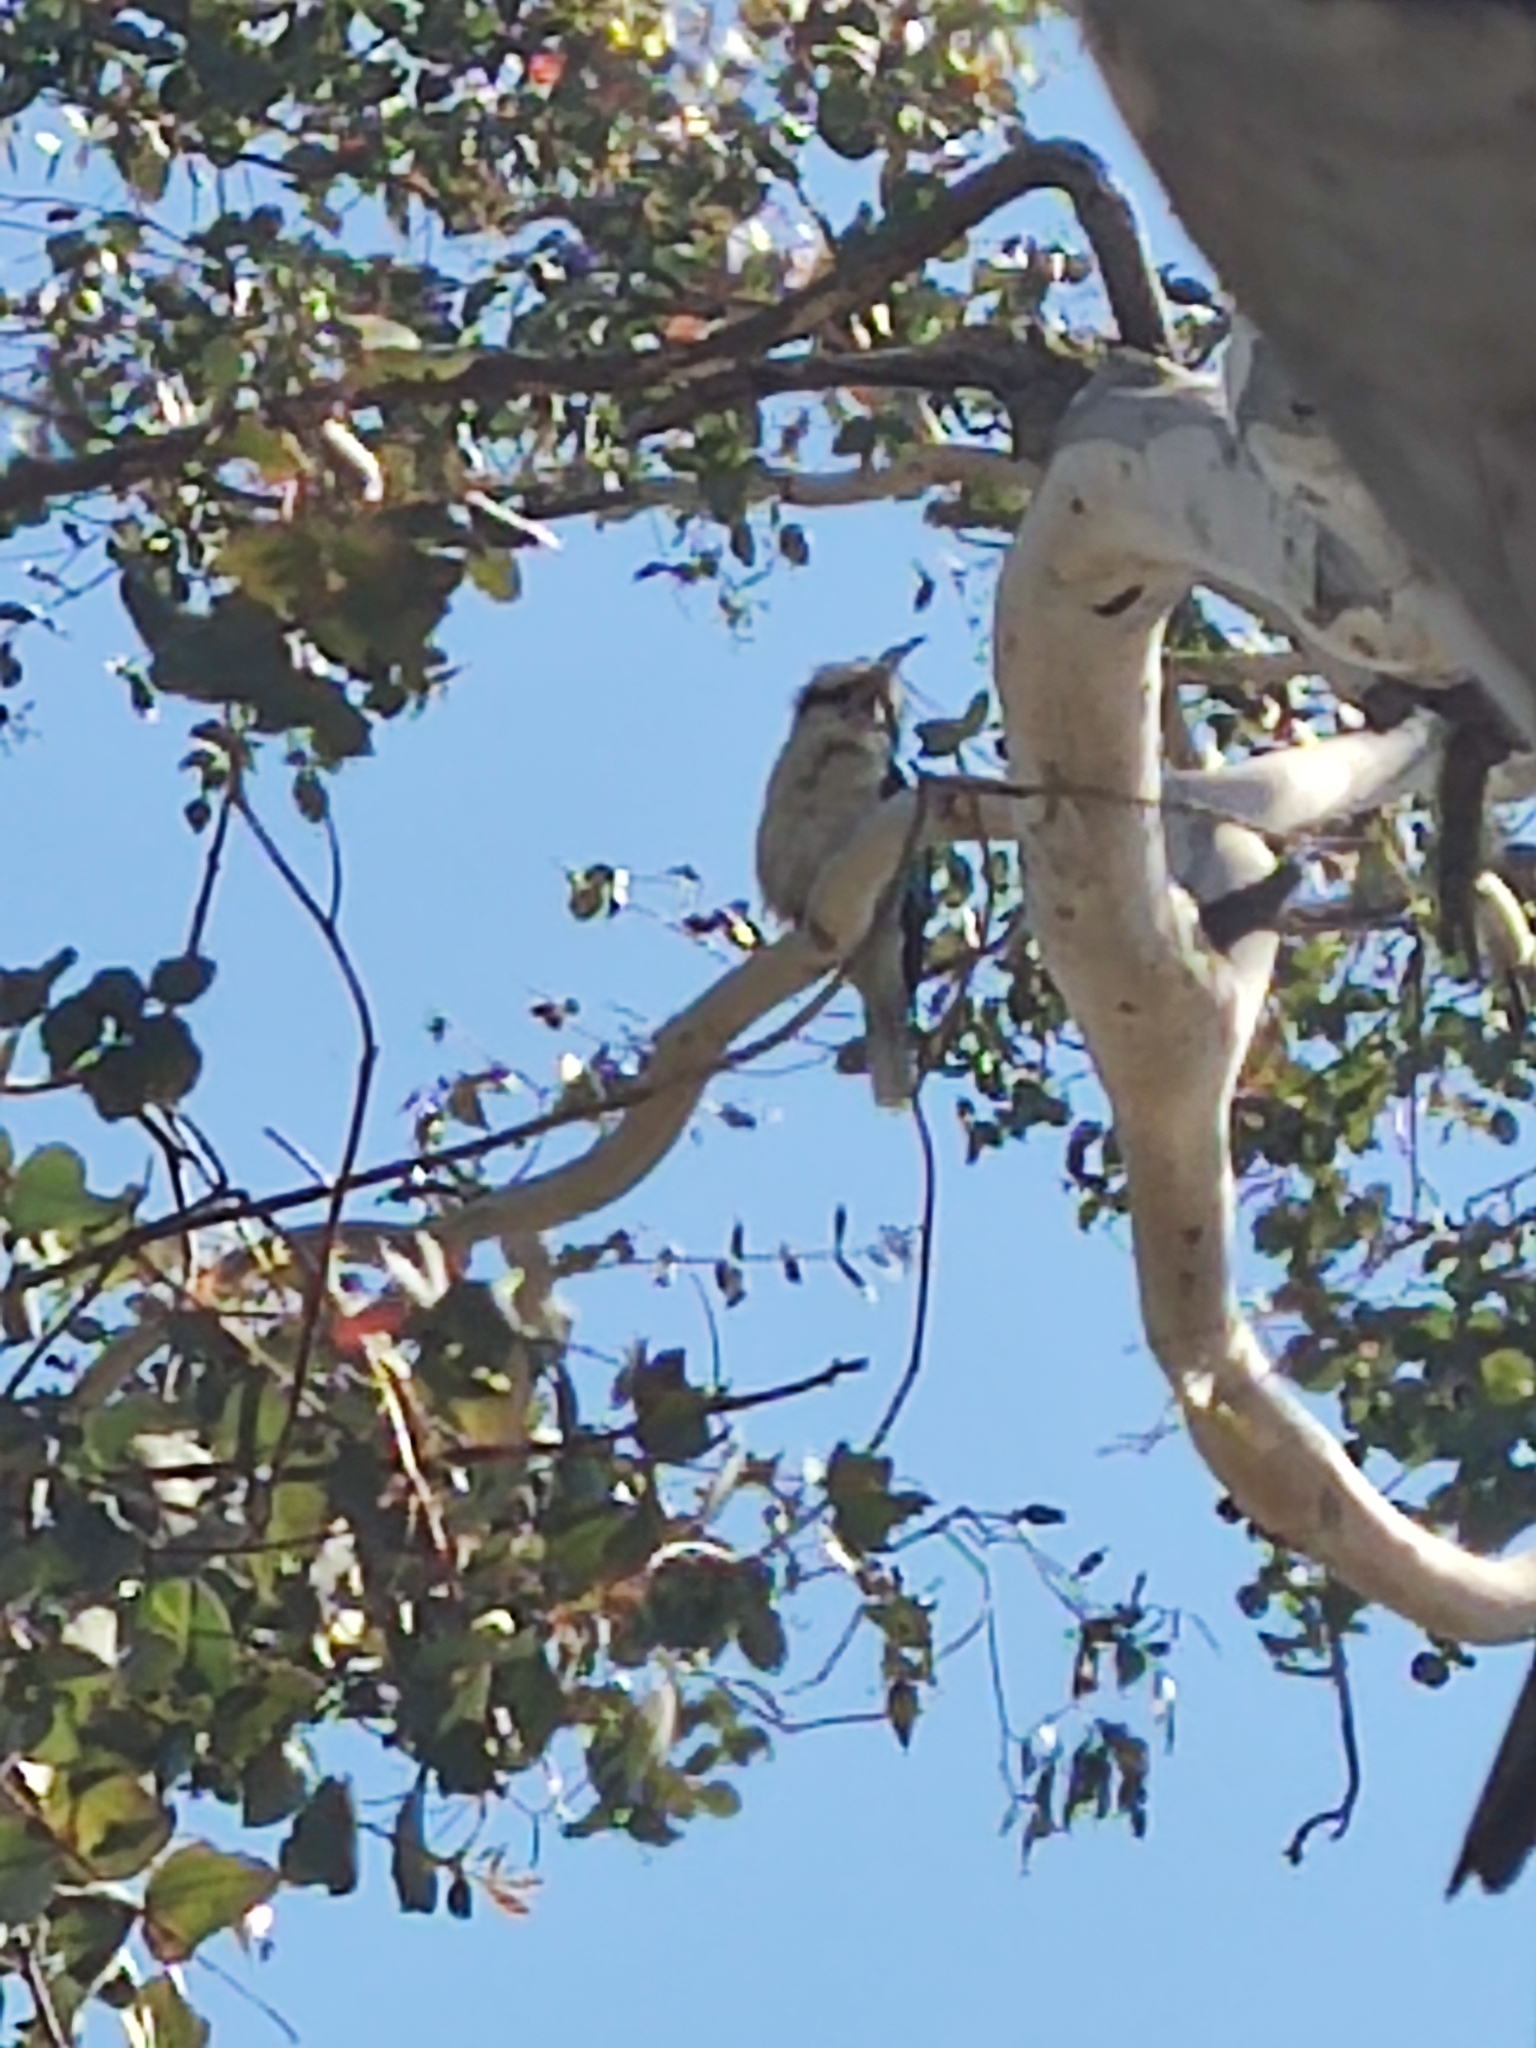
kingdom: Animalia
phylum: Chordata
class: Aves
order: Coraciiformes
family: Alcedinidae
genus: Dacelo
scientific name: Dacelo novaeguineae
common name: Laughing kookaburra
